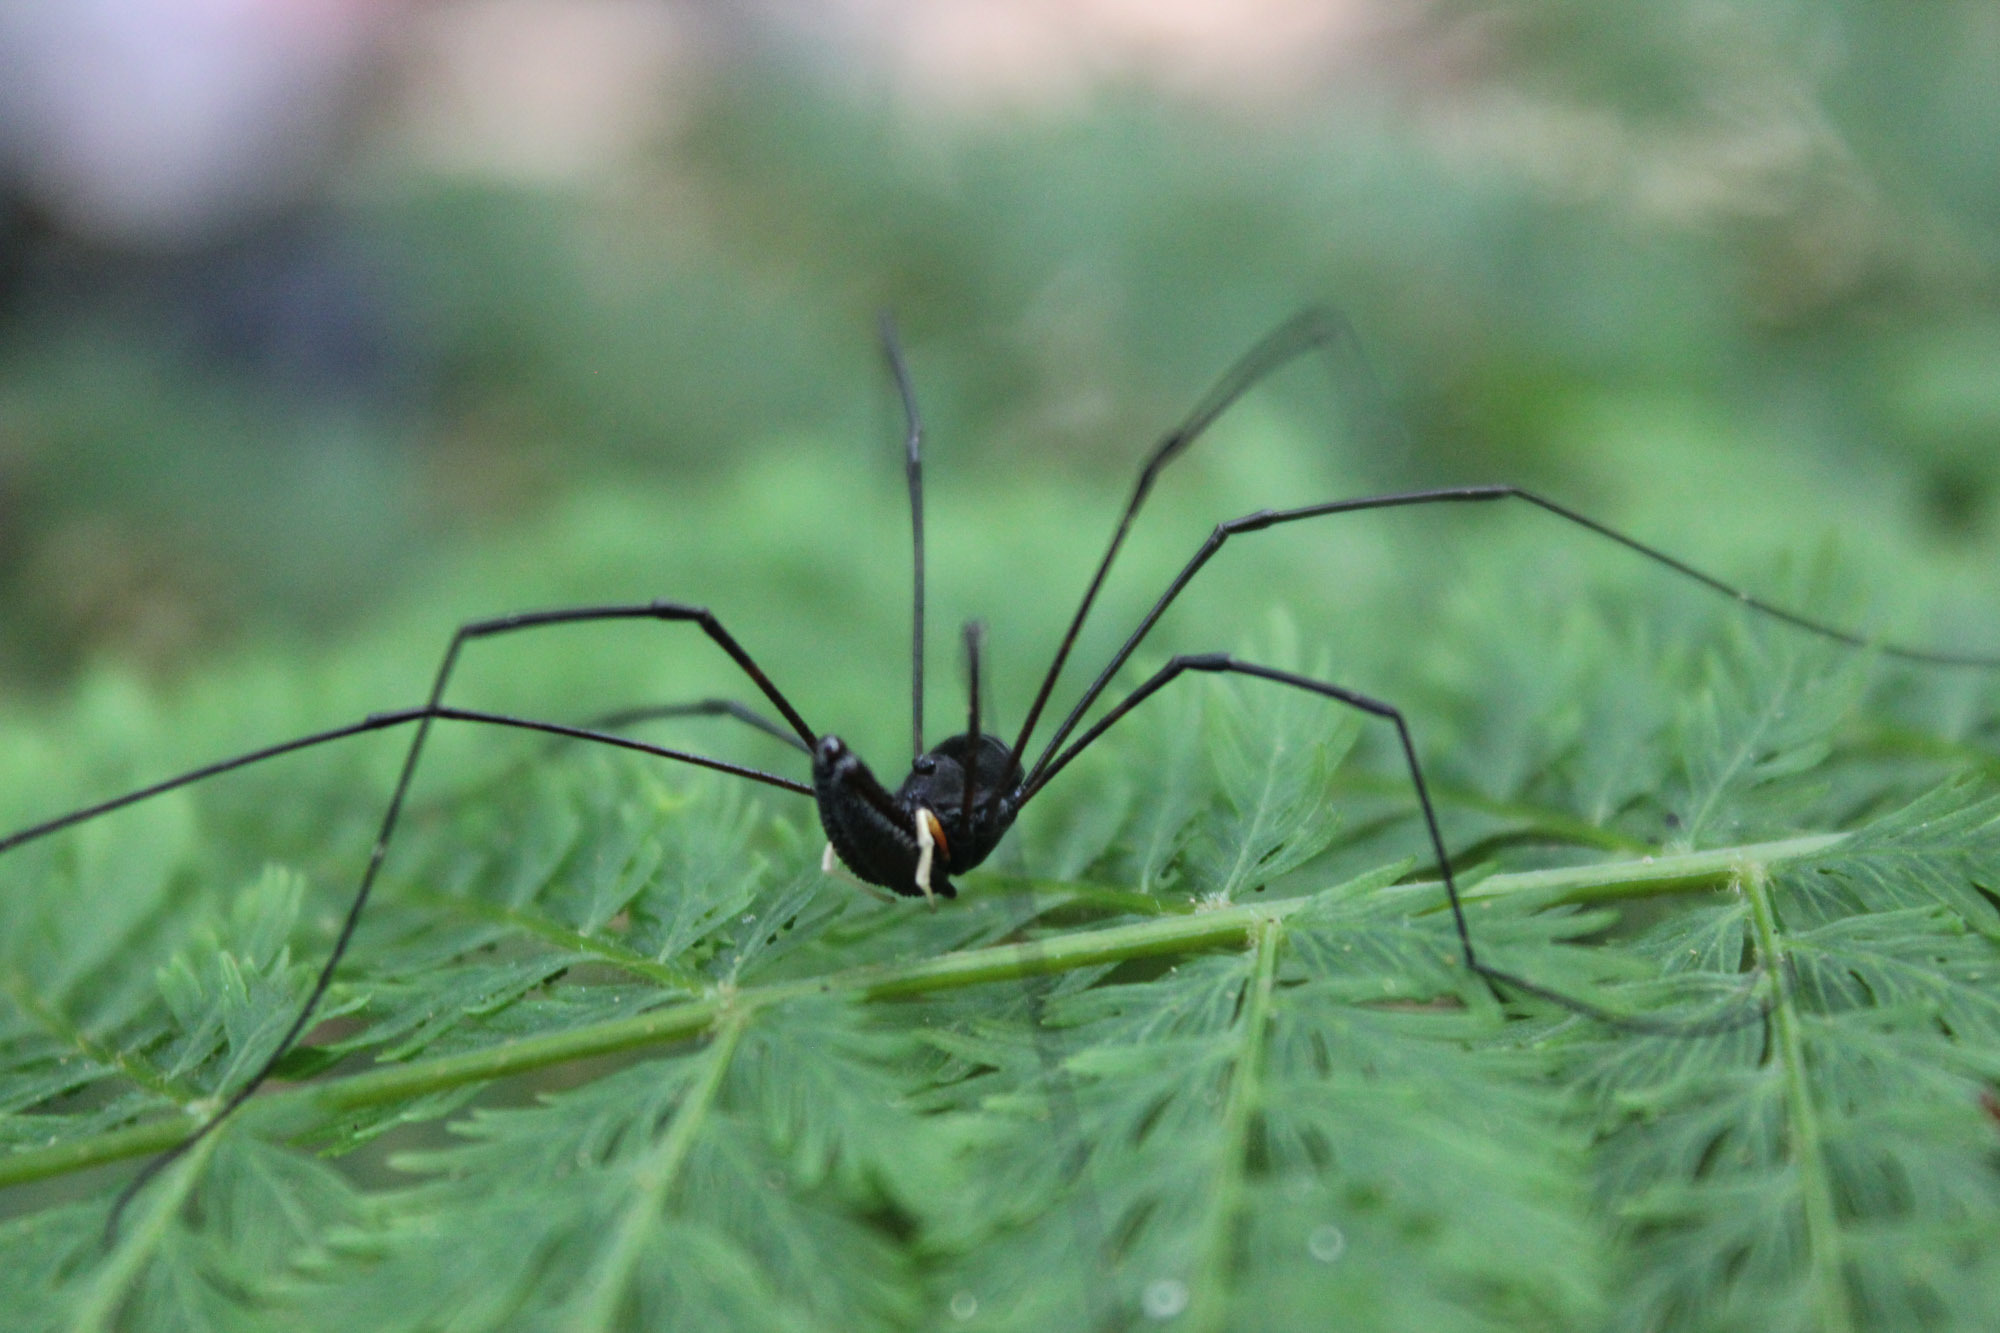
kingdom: Animalia
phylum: Arthropoda
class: Arachnida
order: Opiliones
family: Neopilionidae
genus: Pantopsalis
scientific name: Pantopsalis cheliferoides
